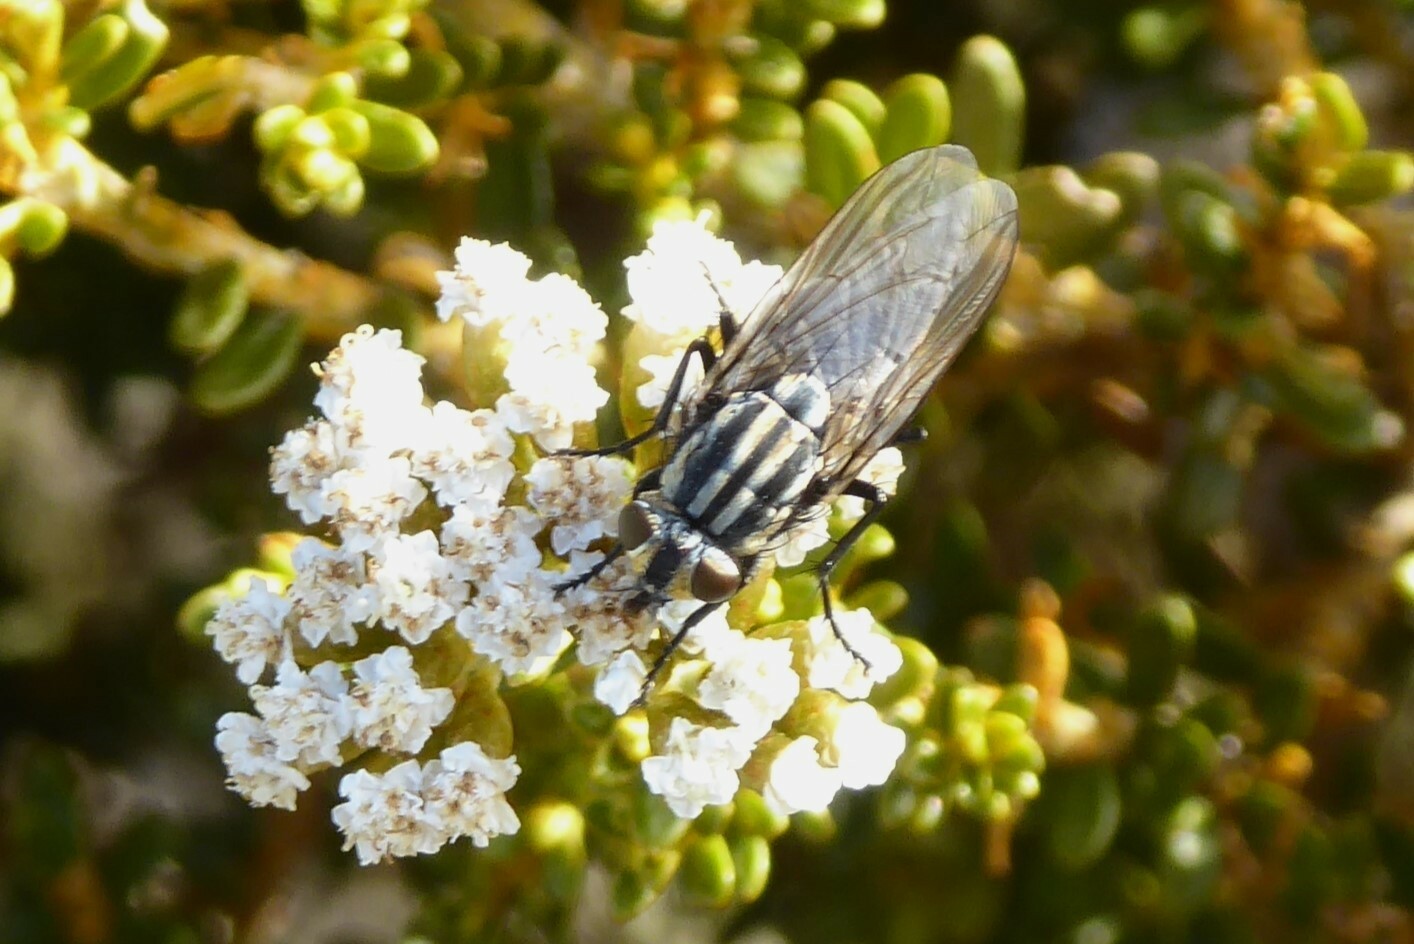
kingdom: Animalia
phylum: Arthropoda
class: Insecta
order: Diptera
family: Sarcophagidae
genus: Oxysarcodexia
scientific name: Oxysarcodexia varia
